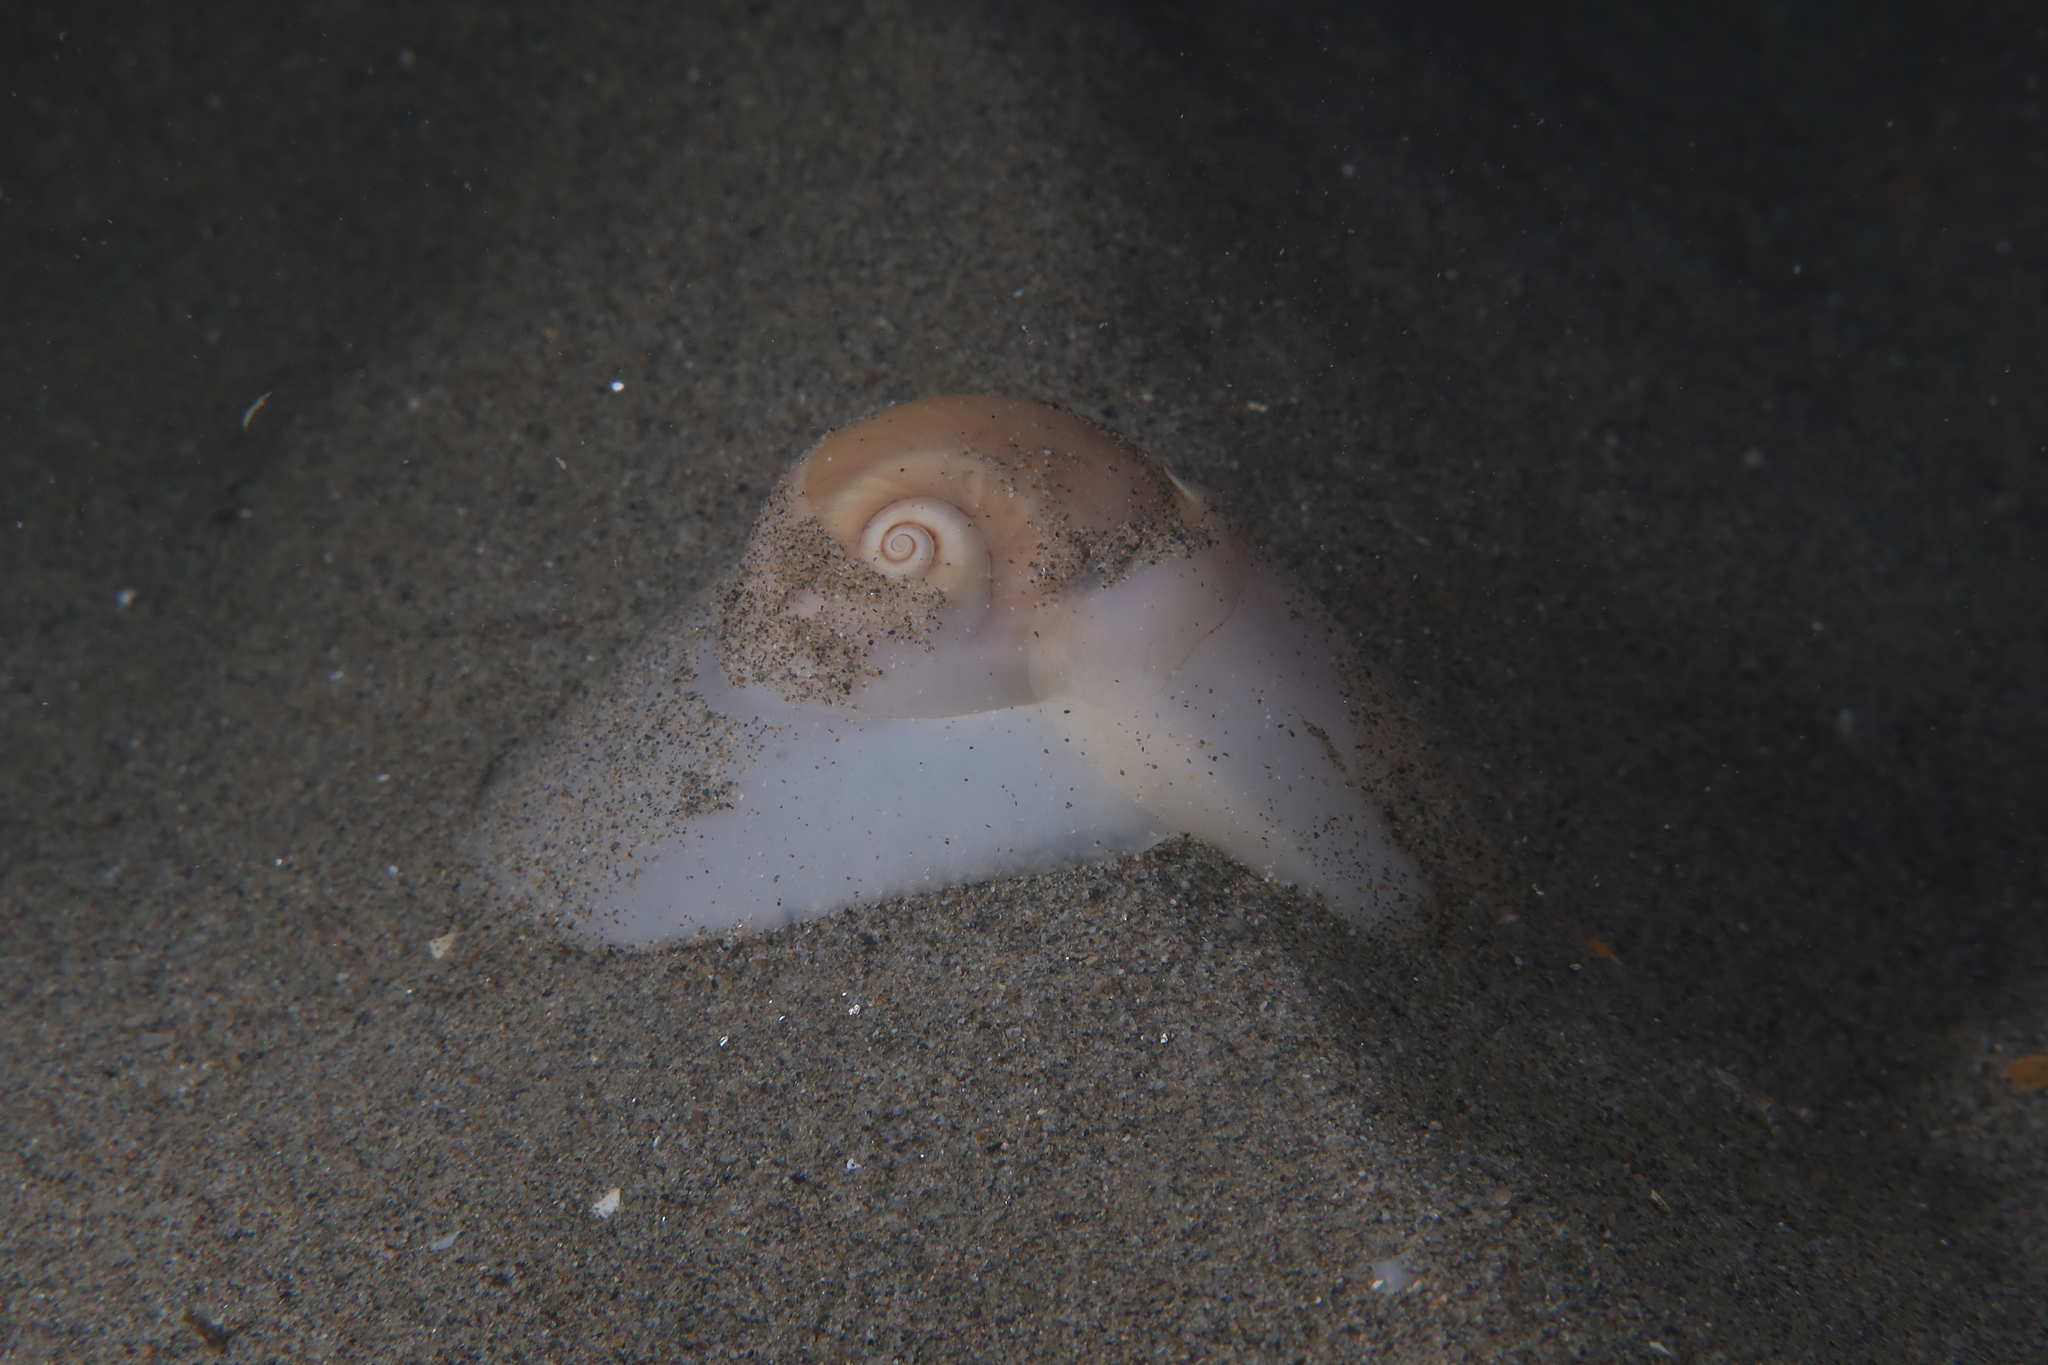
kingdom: Animalia
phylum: Mollusca
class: Gastropoda
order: Littorinimorpha
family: Naticidae
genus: Neverita
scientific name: Neverita josephinia
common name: Josephine's moonsnail
